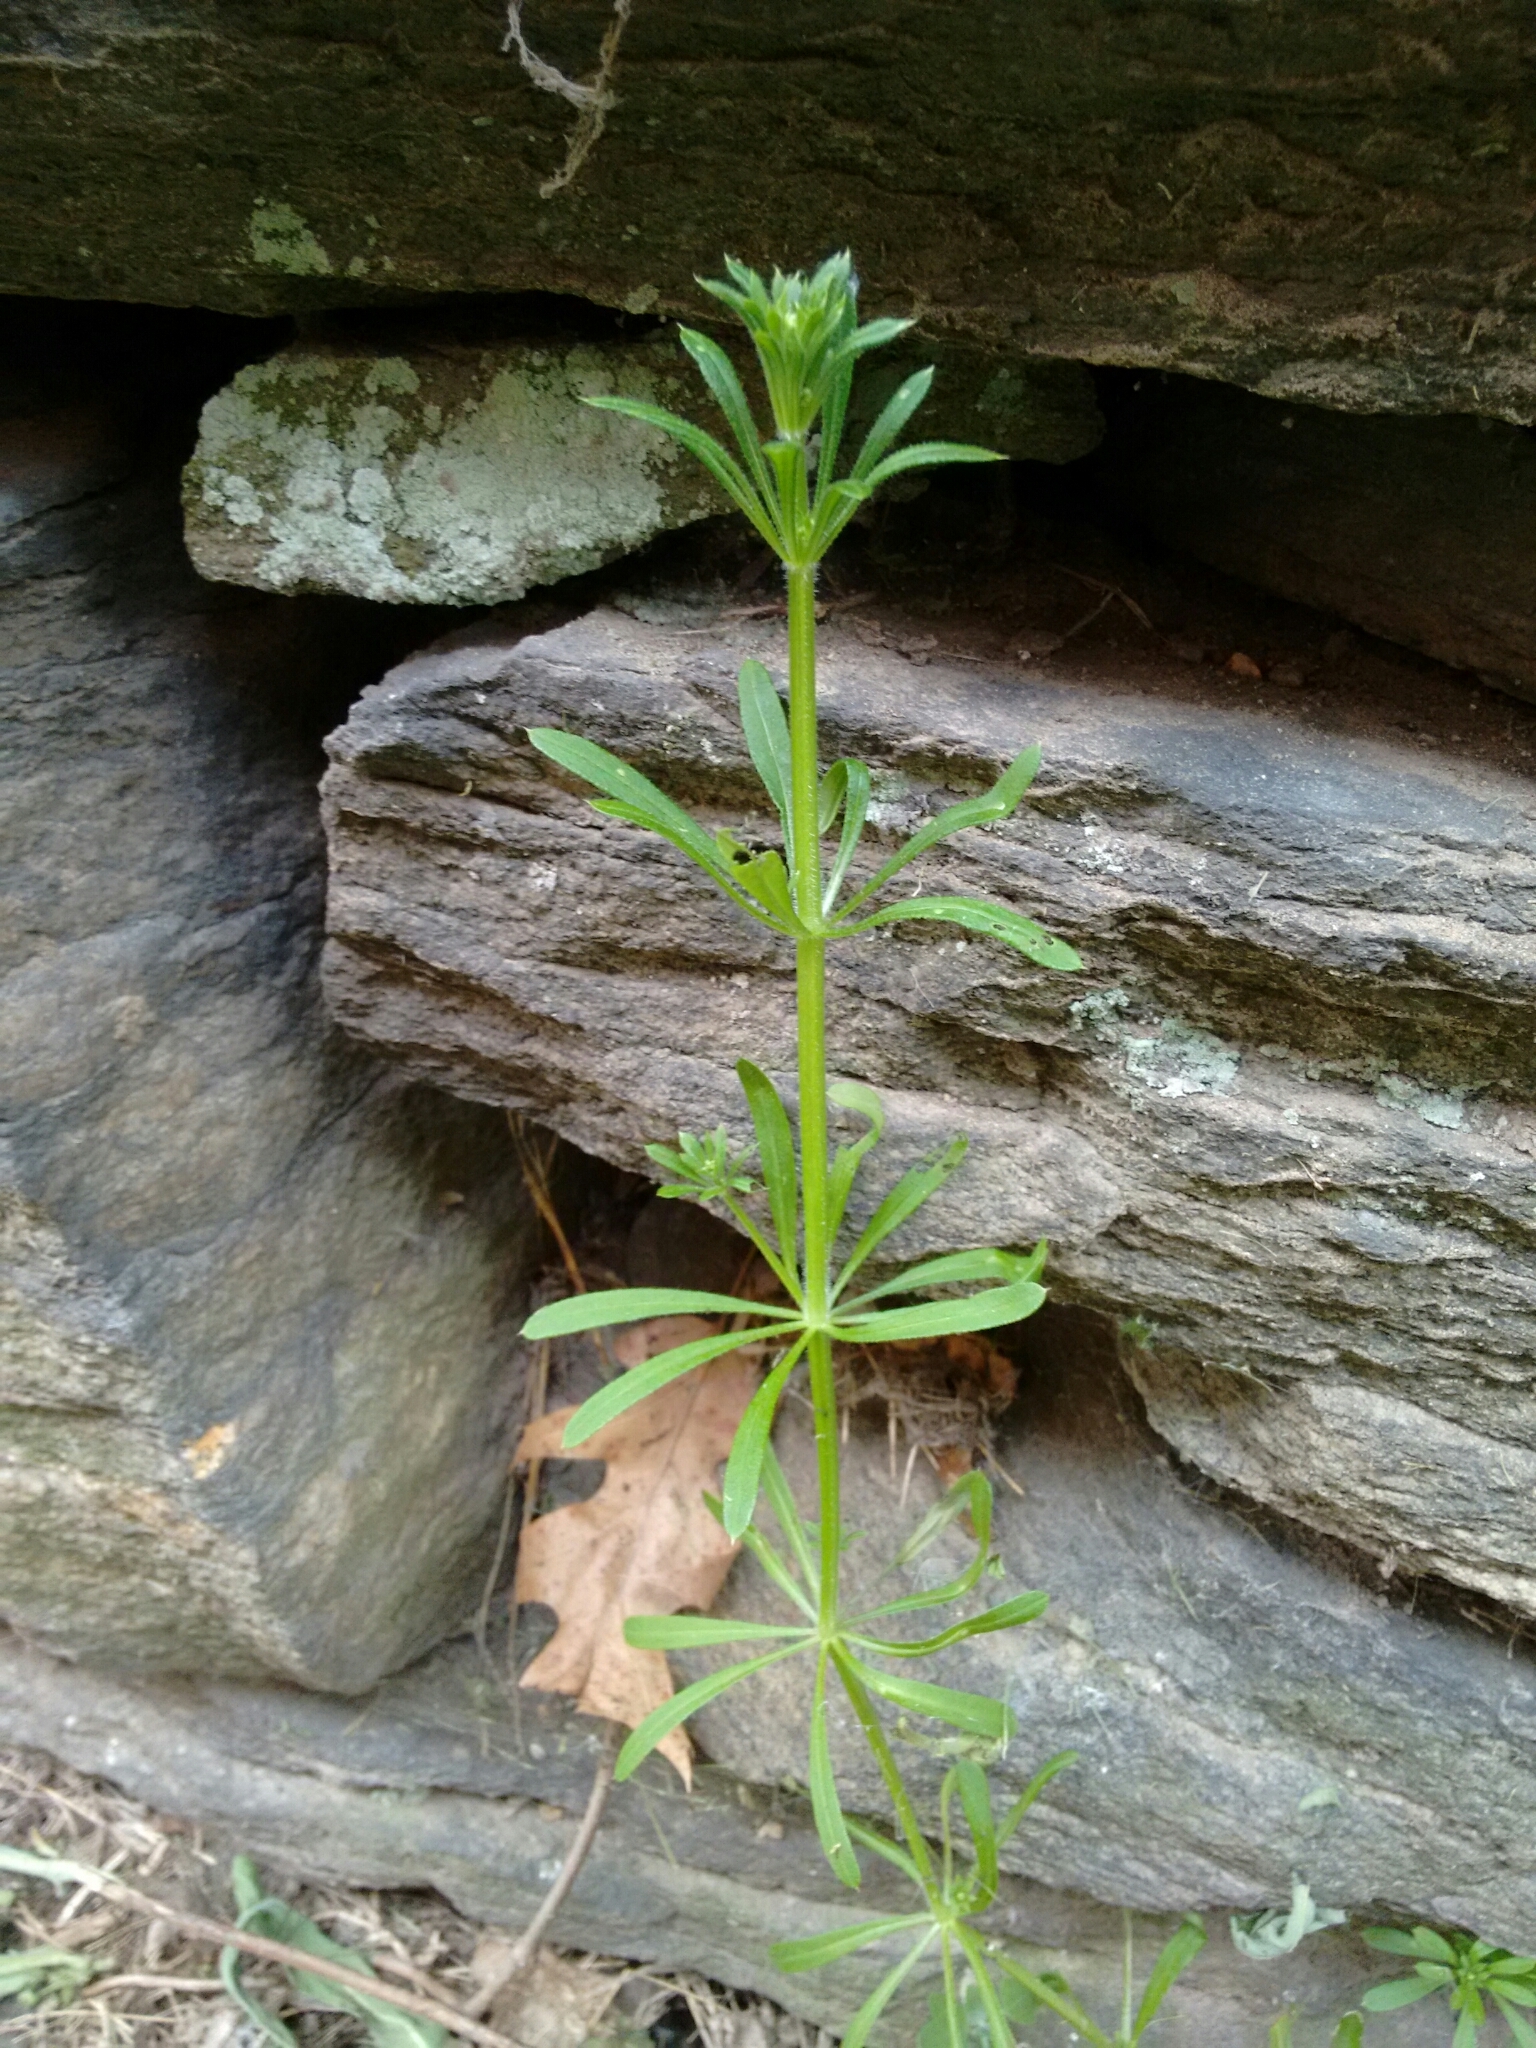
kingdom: Plantae
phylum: Tracheophyta
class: Magnoliopsida
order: Gentianales
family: Rubiaceae
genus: Galium
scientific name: Galium aparine
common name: Cleavers
